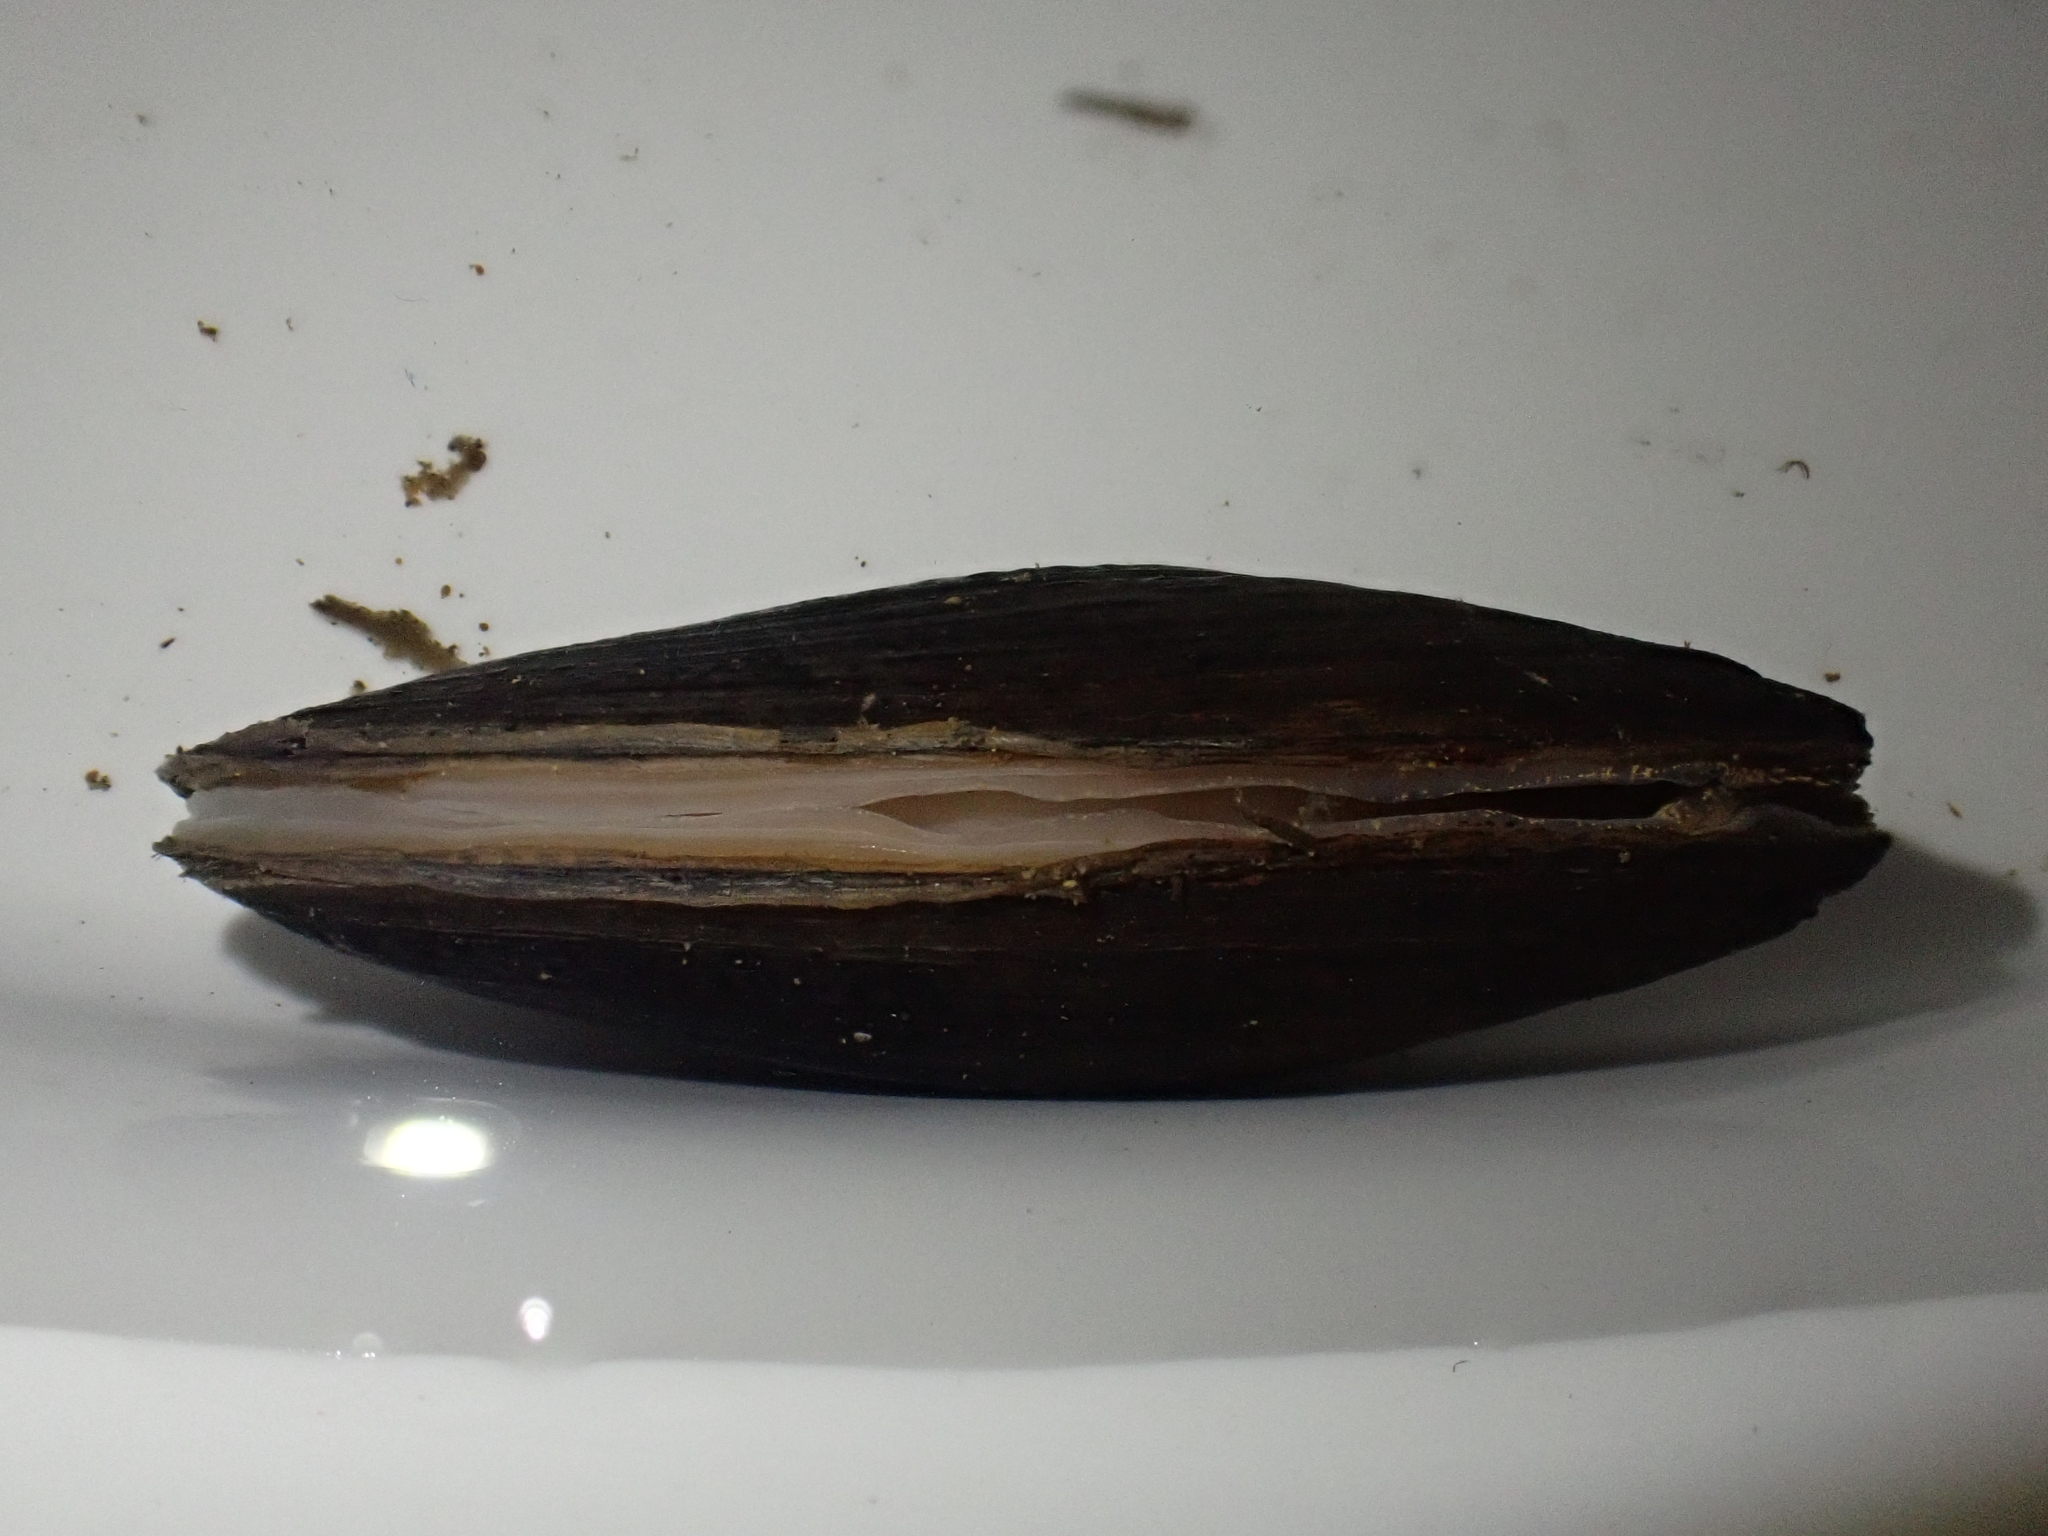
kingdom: Animalia
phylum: Mollusca
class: Bivalvia
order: Unionida
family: Hyriidae
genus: Echyridella
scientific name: Echyridella menziesii
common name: New zealand freshwater mussel
